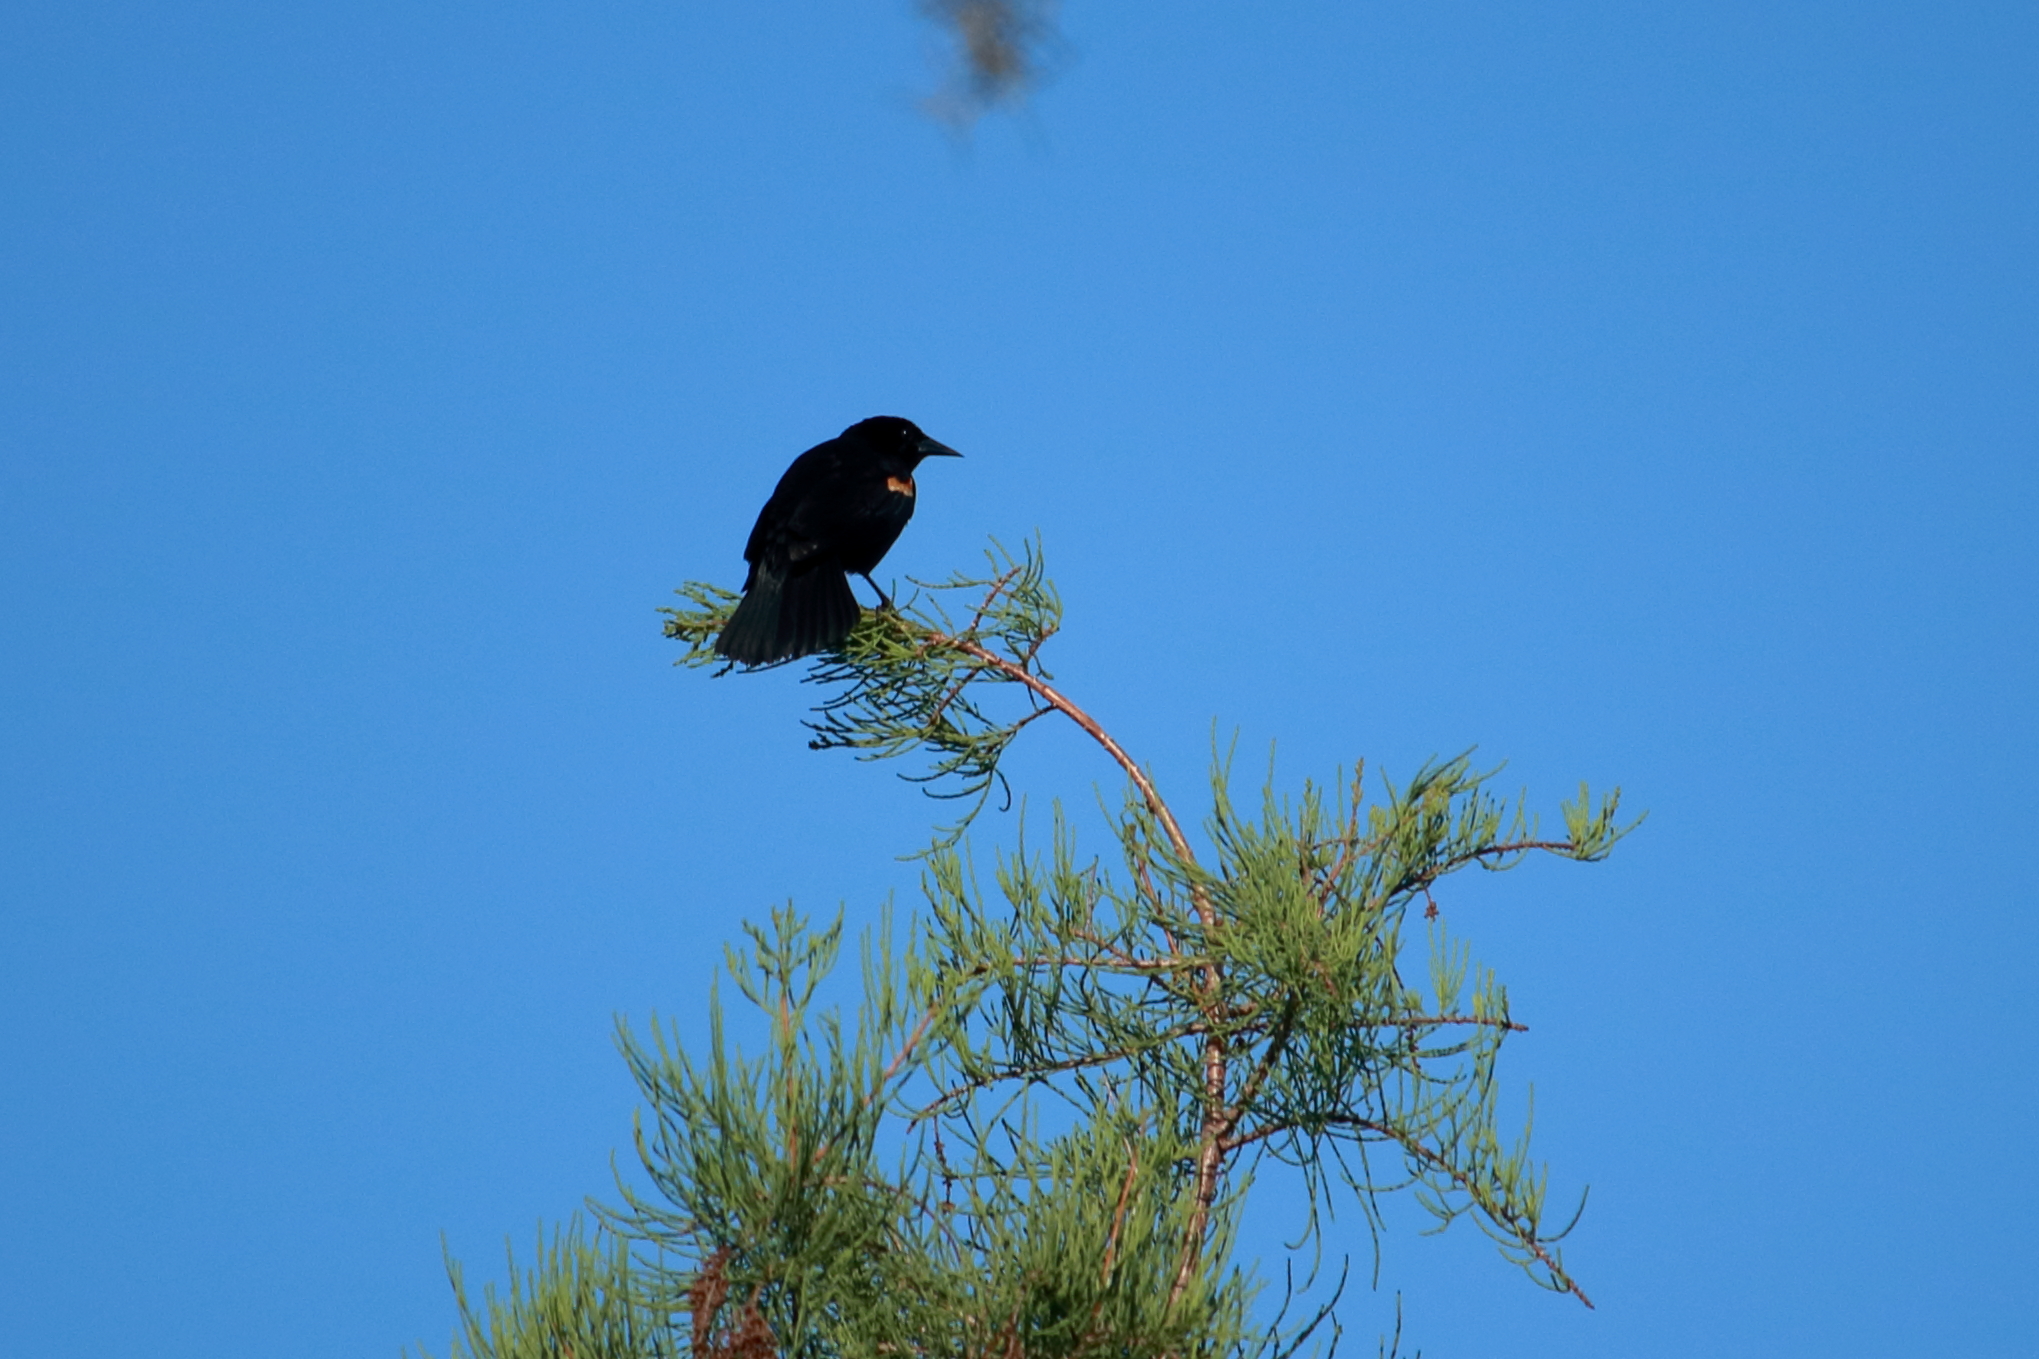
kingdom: Animalia
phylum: Chordata
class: Aves
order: Passeriformes
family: Icteridae
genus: Agelaius
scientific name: Agelaius phoeniceus
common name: Red-winged blackbird
